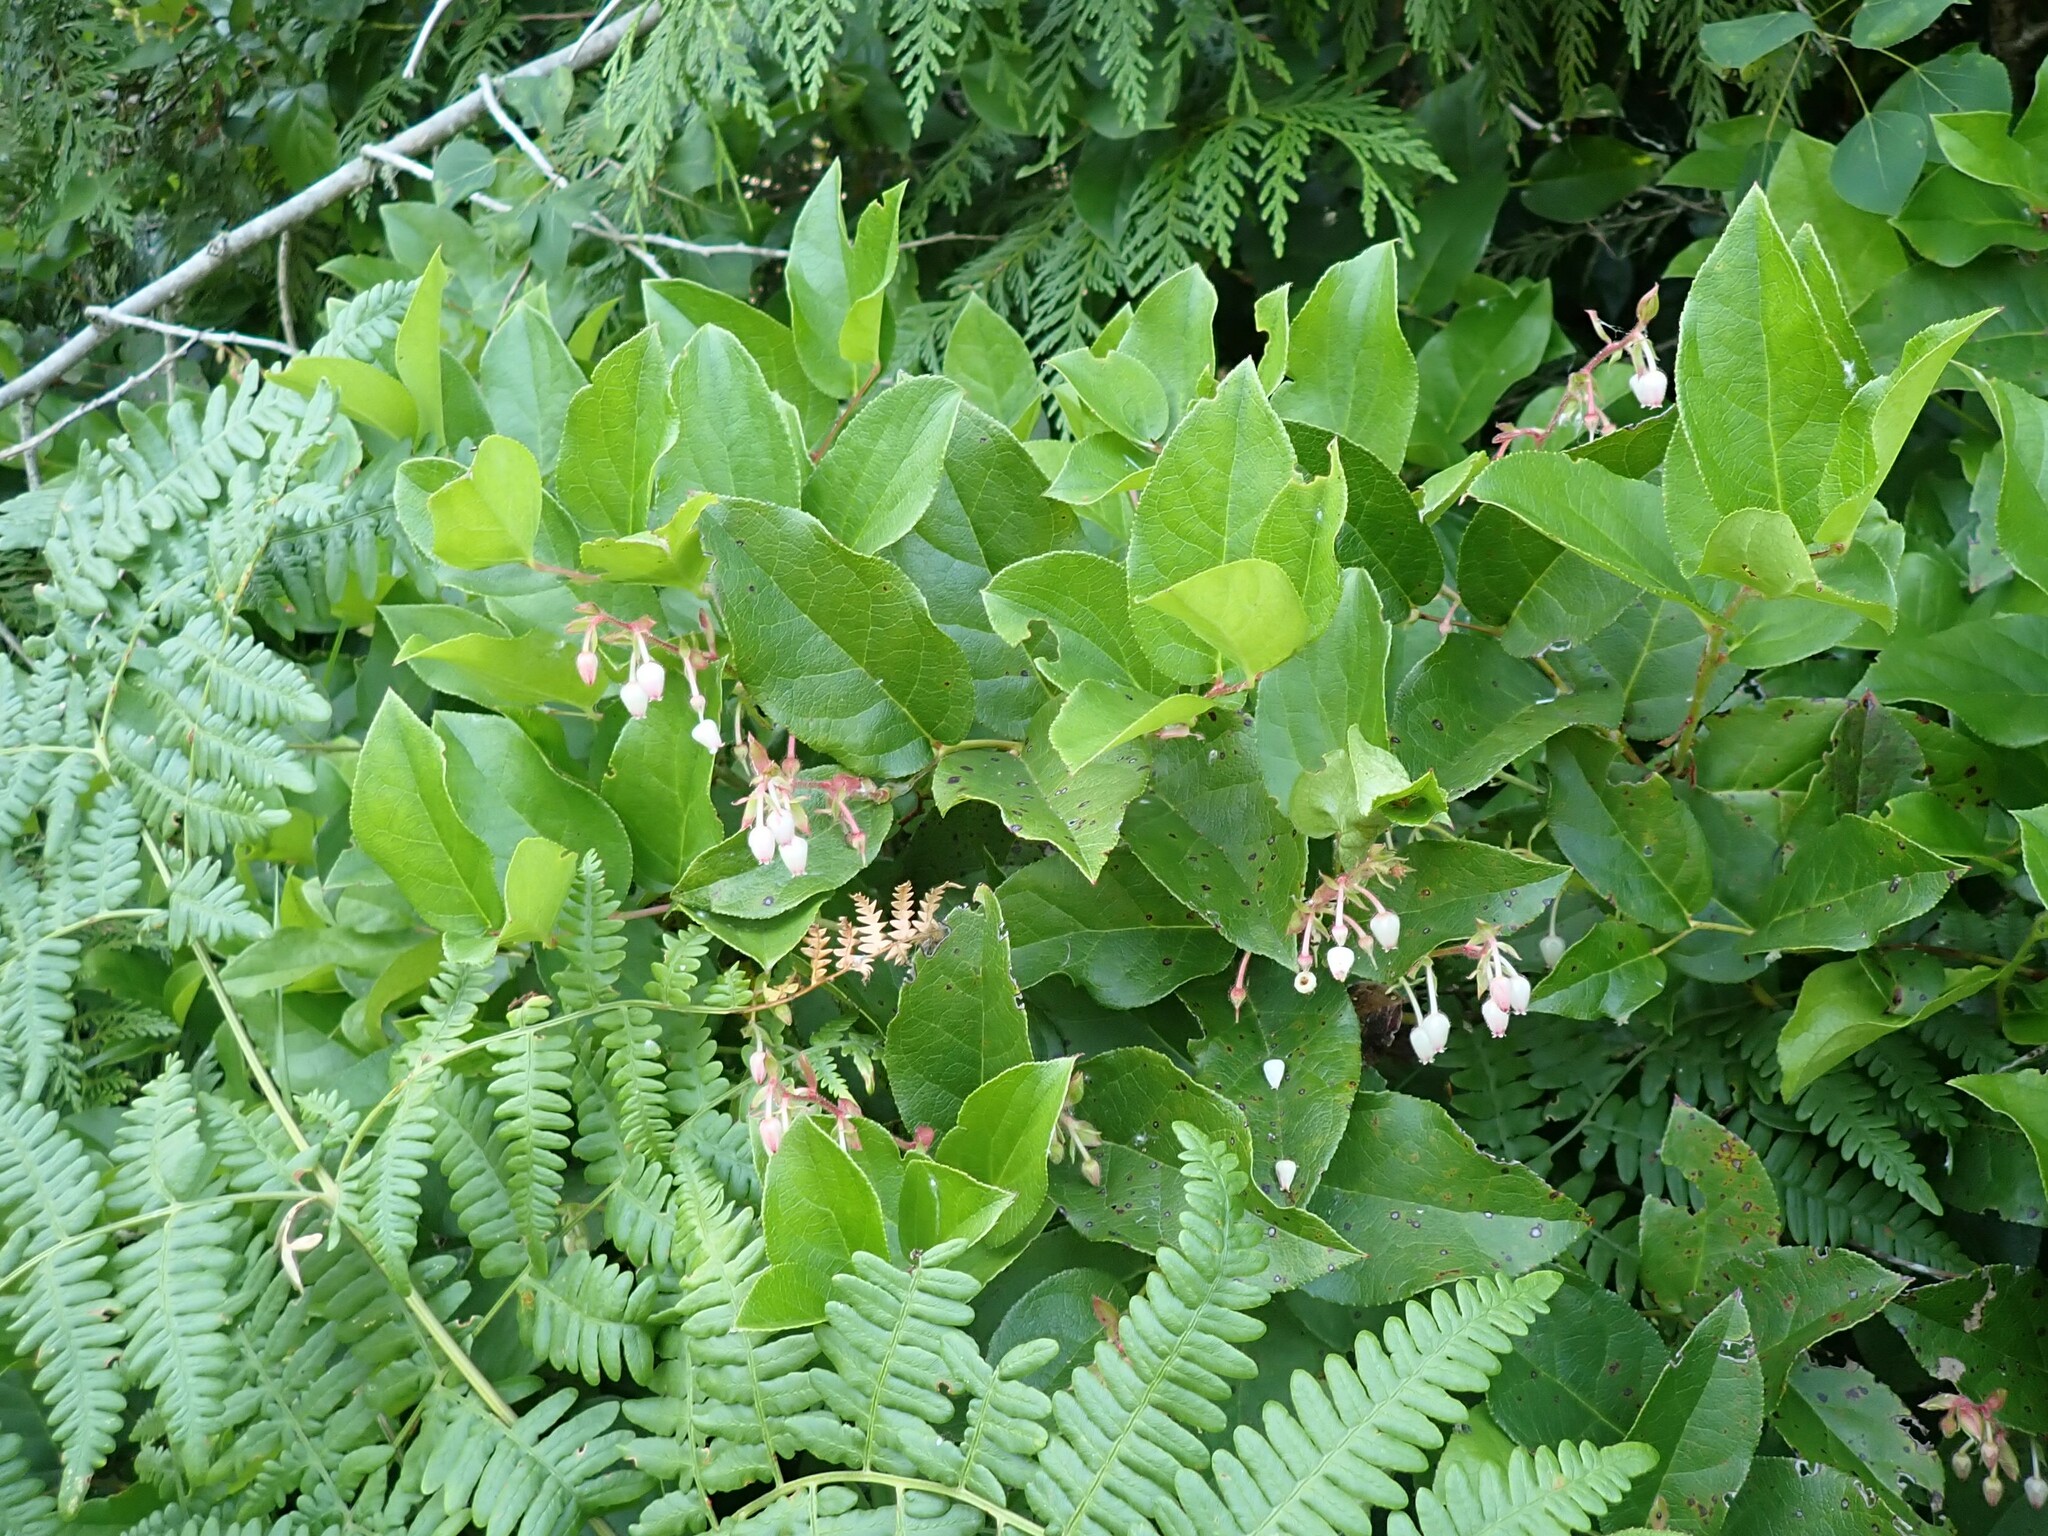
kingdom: Plantae
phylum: Tracheophyta
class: Magnoliopsida
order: Ericales
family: Ericaceae
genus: Gaultheria
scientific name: Gaultheria shallon
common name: Shallon
